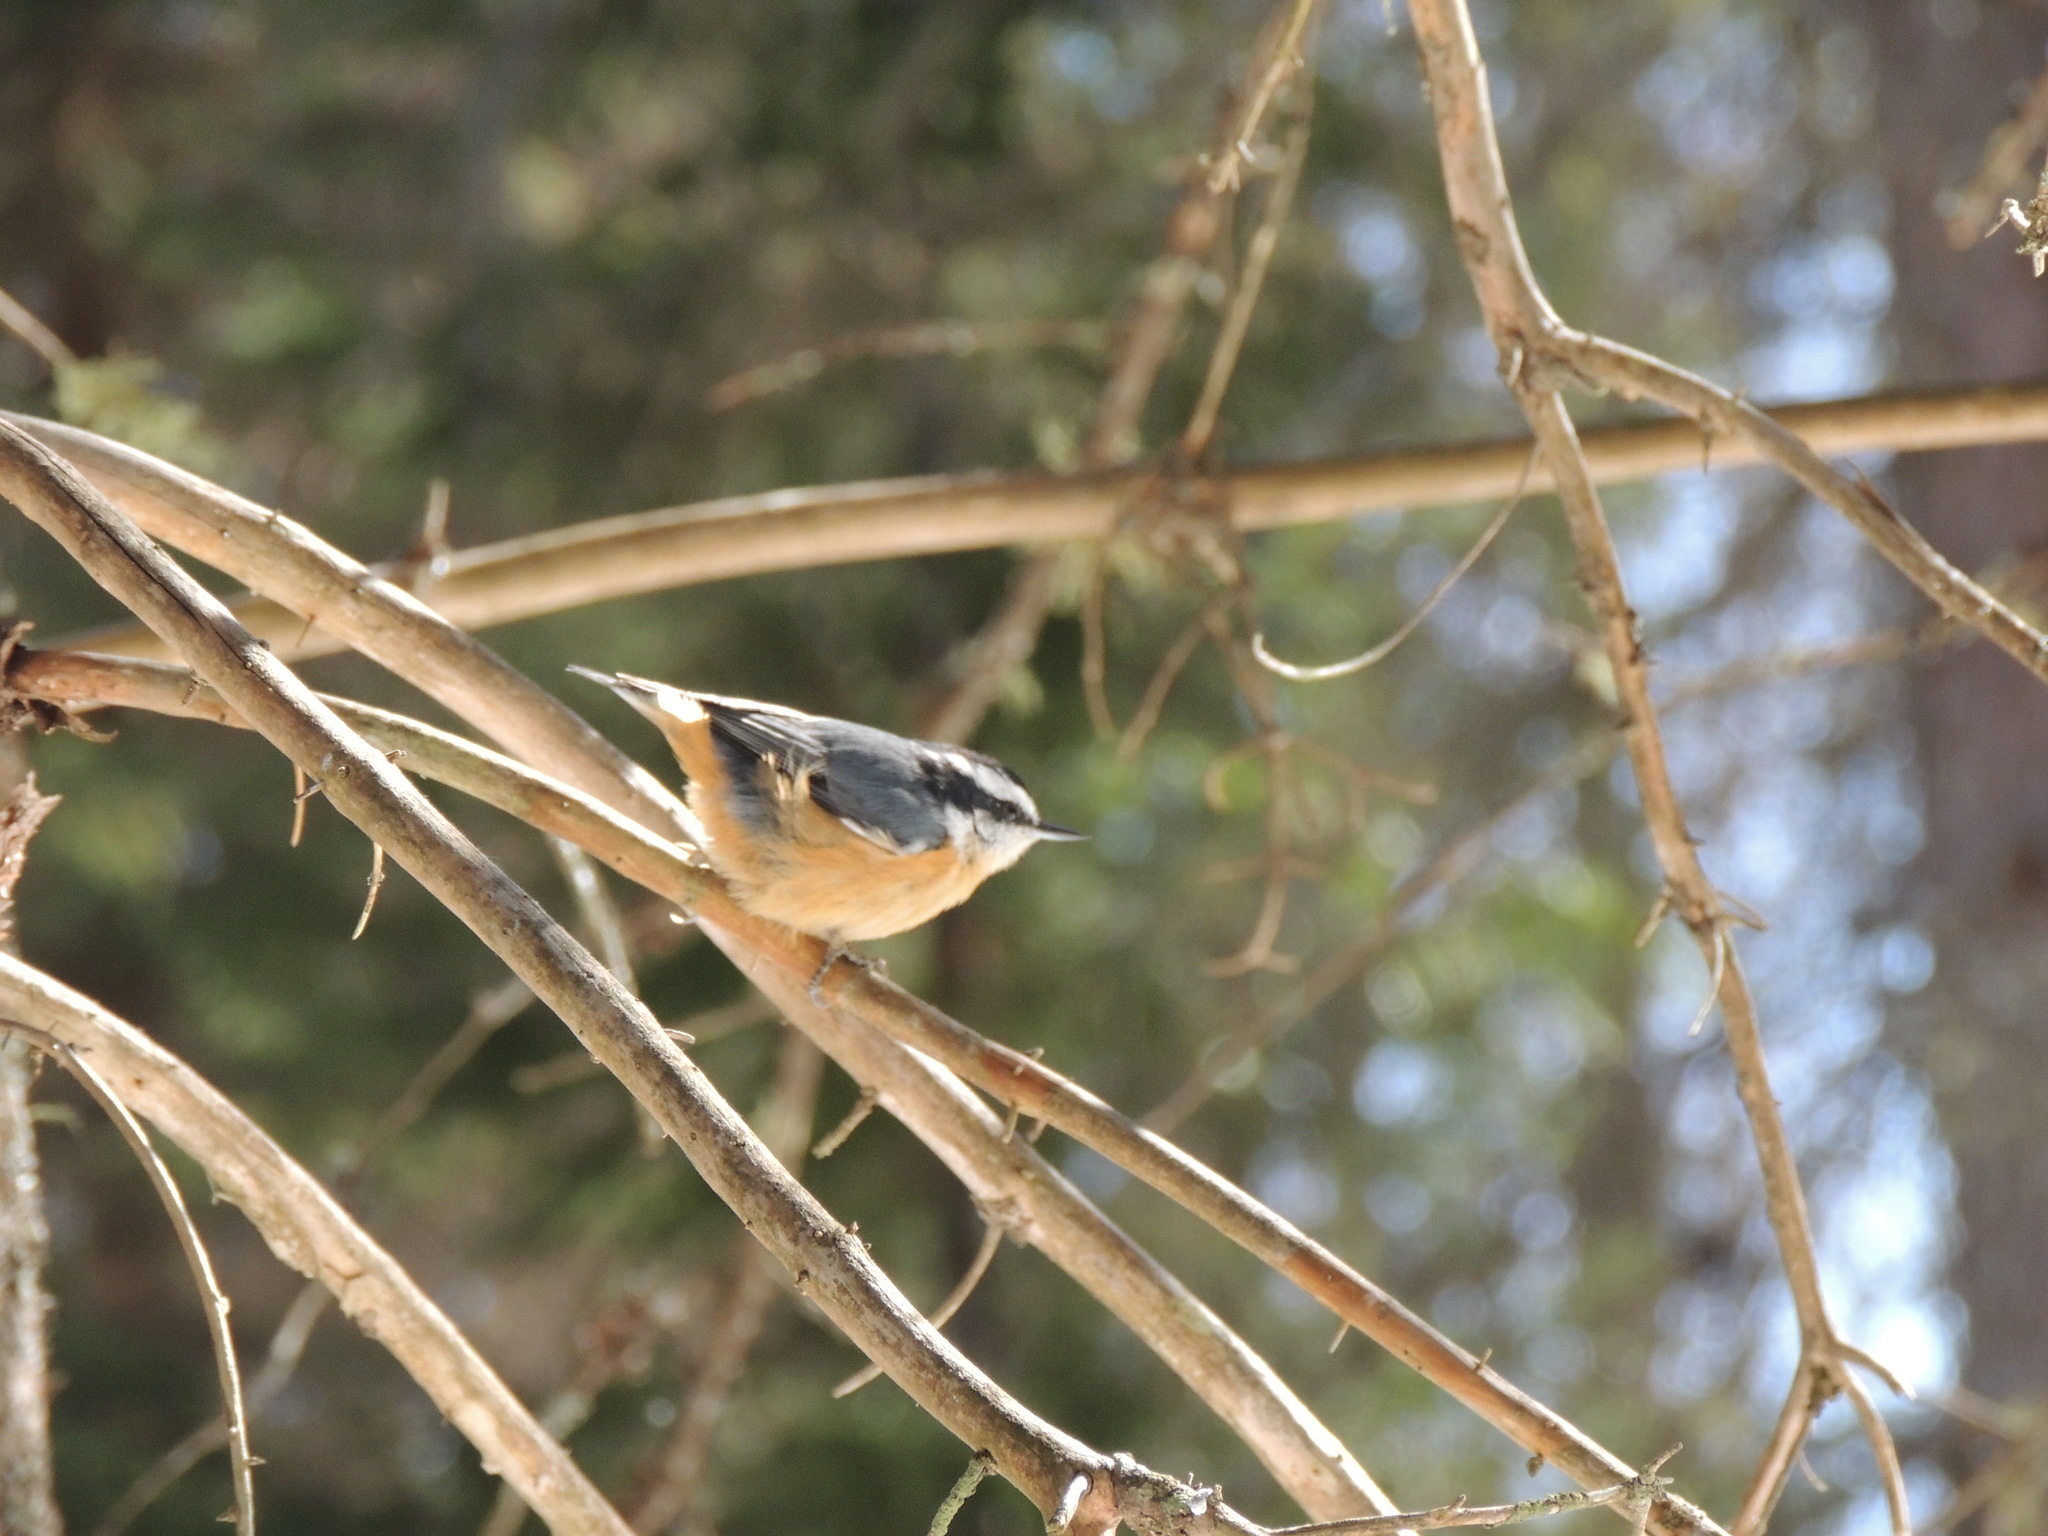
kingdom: Animalia
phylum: Chordata
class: Aves
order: Passeriformes
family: Sittidae
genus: Sitta
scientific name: Sitta canadensis
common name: Red-breasted nuthatch
